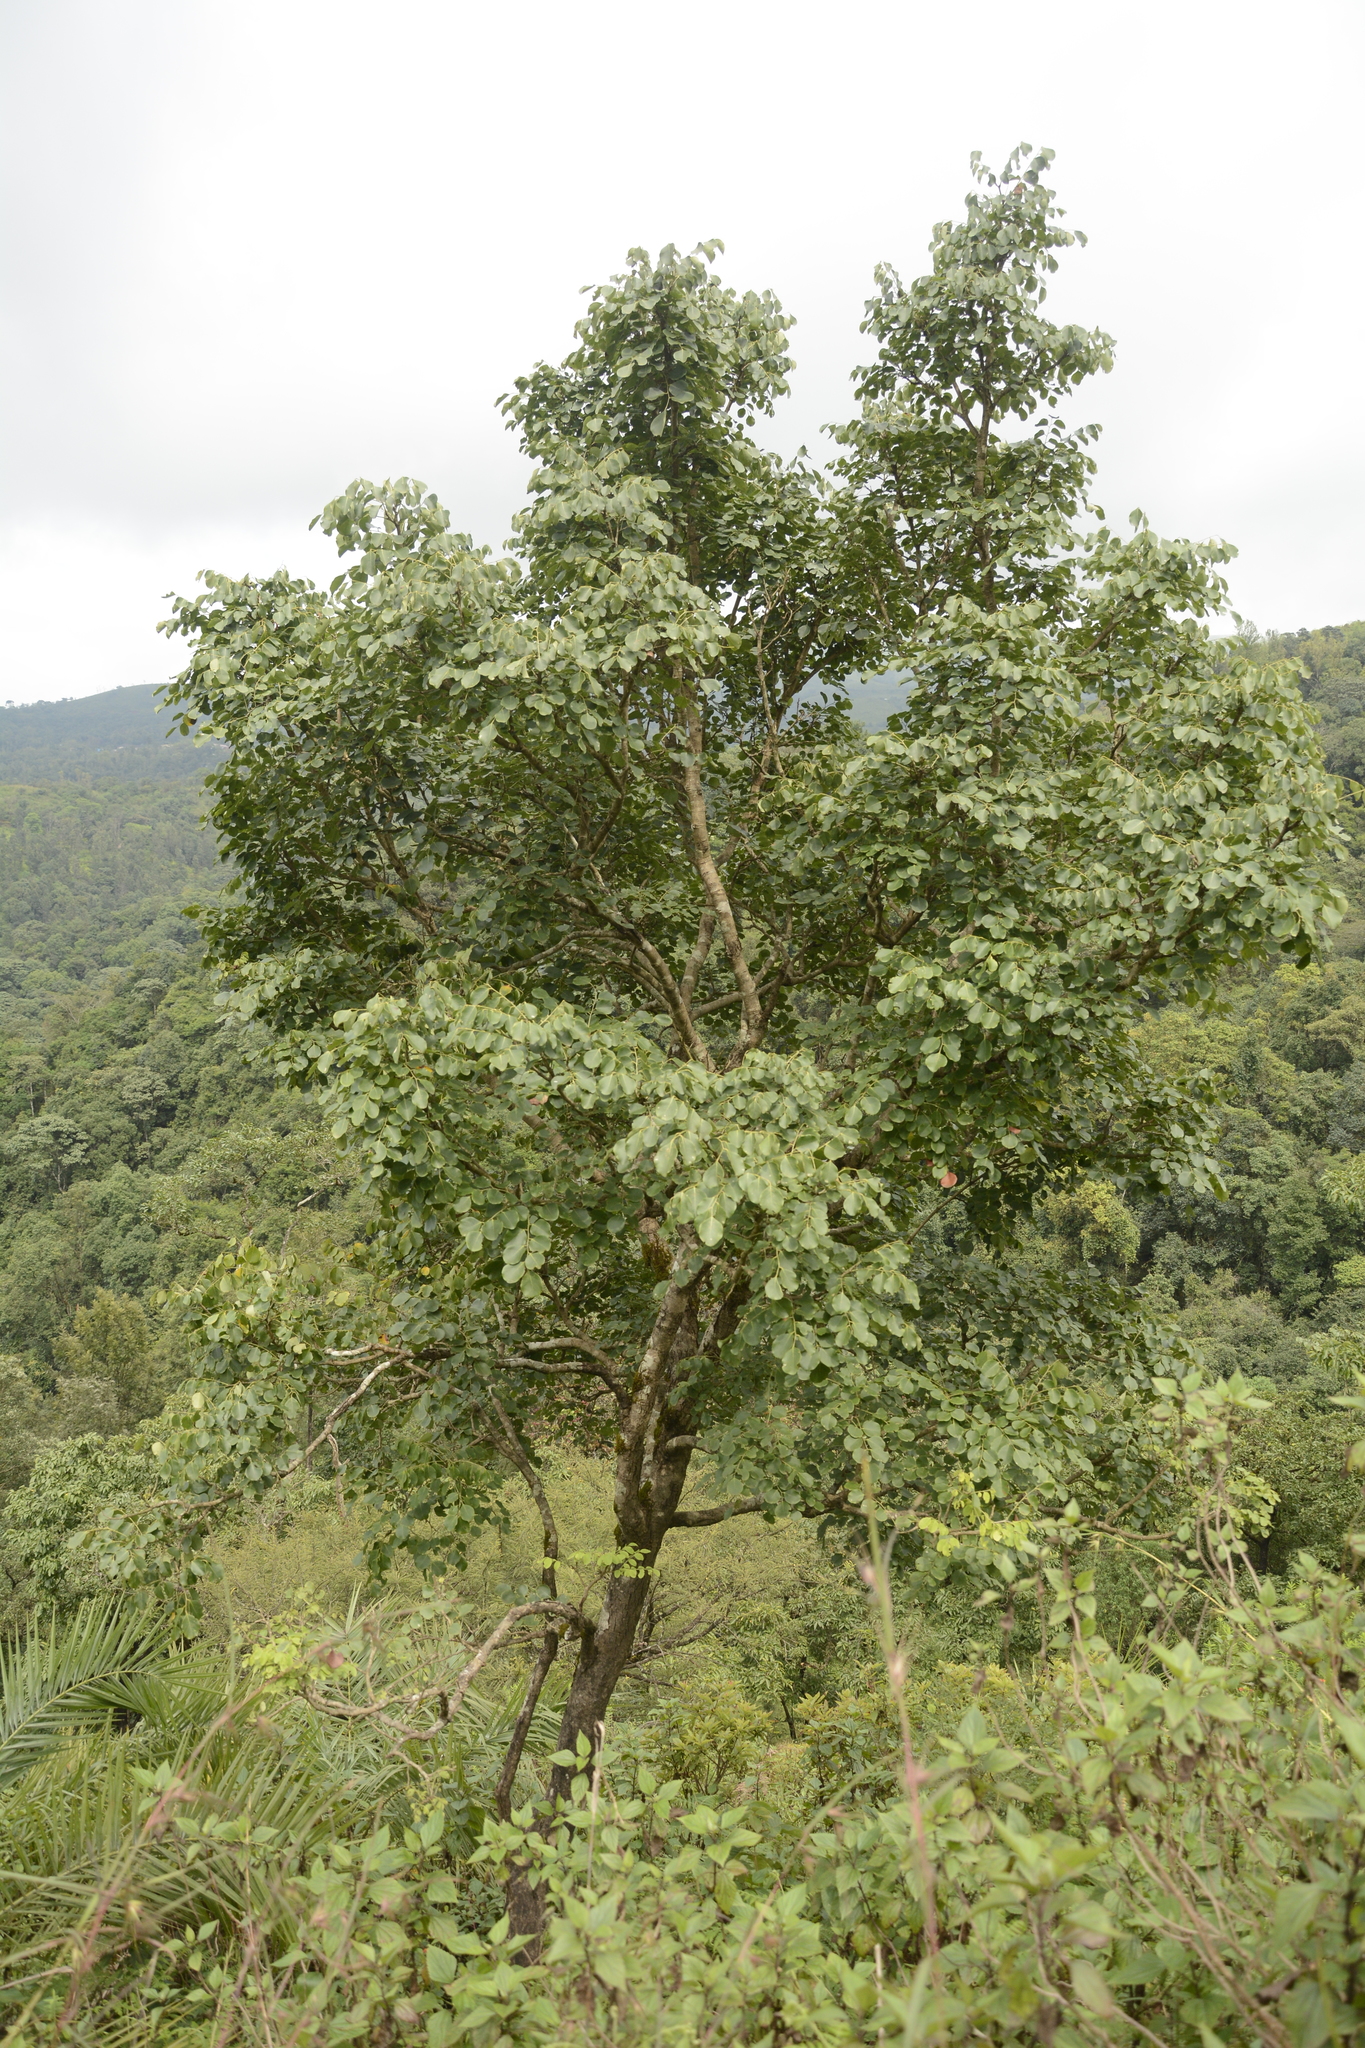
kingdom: Plantae
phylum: Tracheophyta
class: Magnoliopsida
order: Fabales
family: Fabaceae
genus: Dalbergia
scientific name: Dalbergia latifolia
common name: Bombay blackwood
